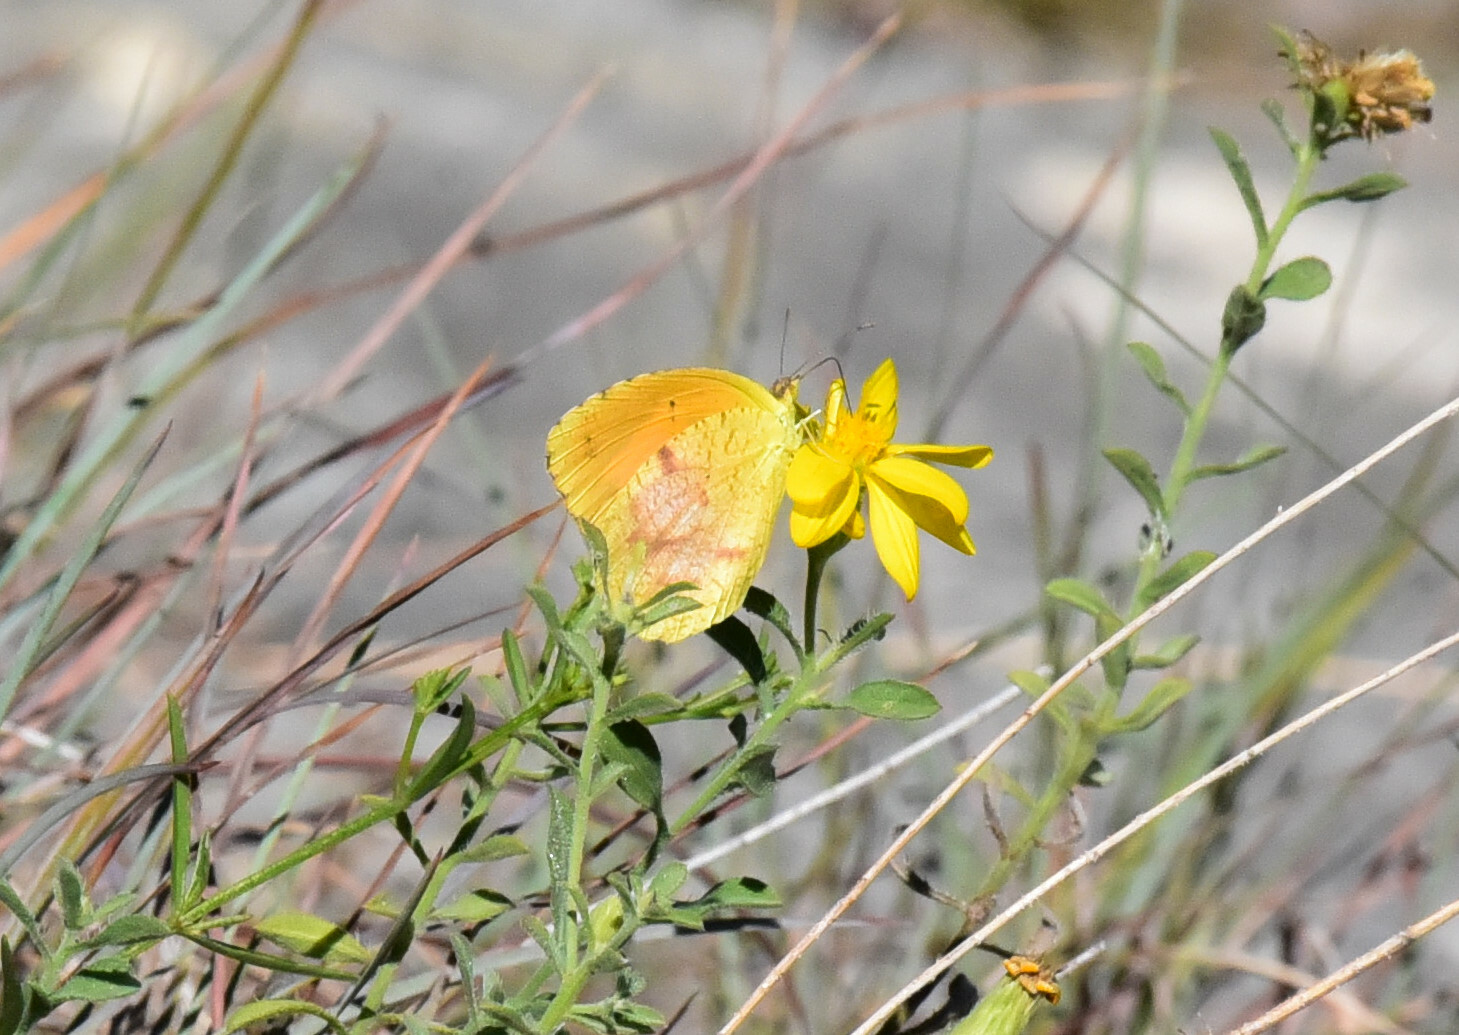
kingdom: Animalia
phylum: Arthropoda
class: Insecta
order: Lepidoptera
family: Pieridae
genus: Abaeis
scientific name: Abaeis nicippe
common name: Sleepy orange
